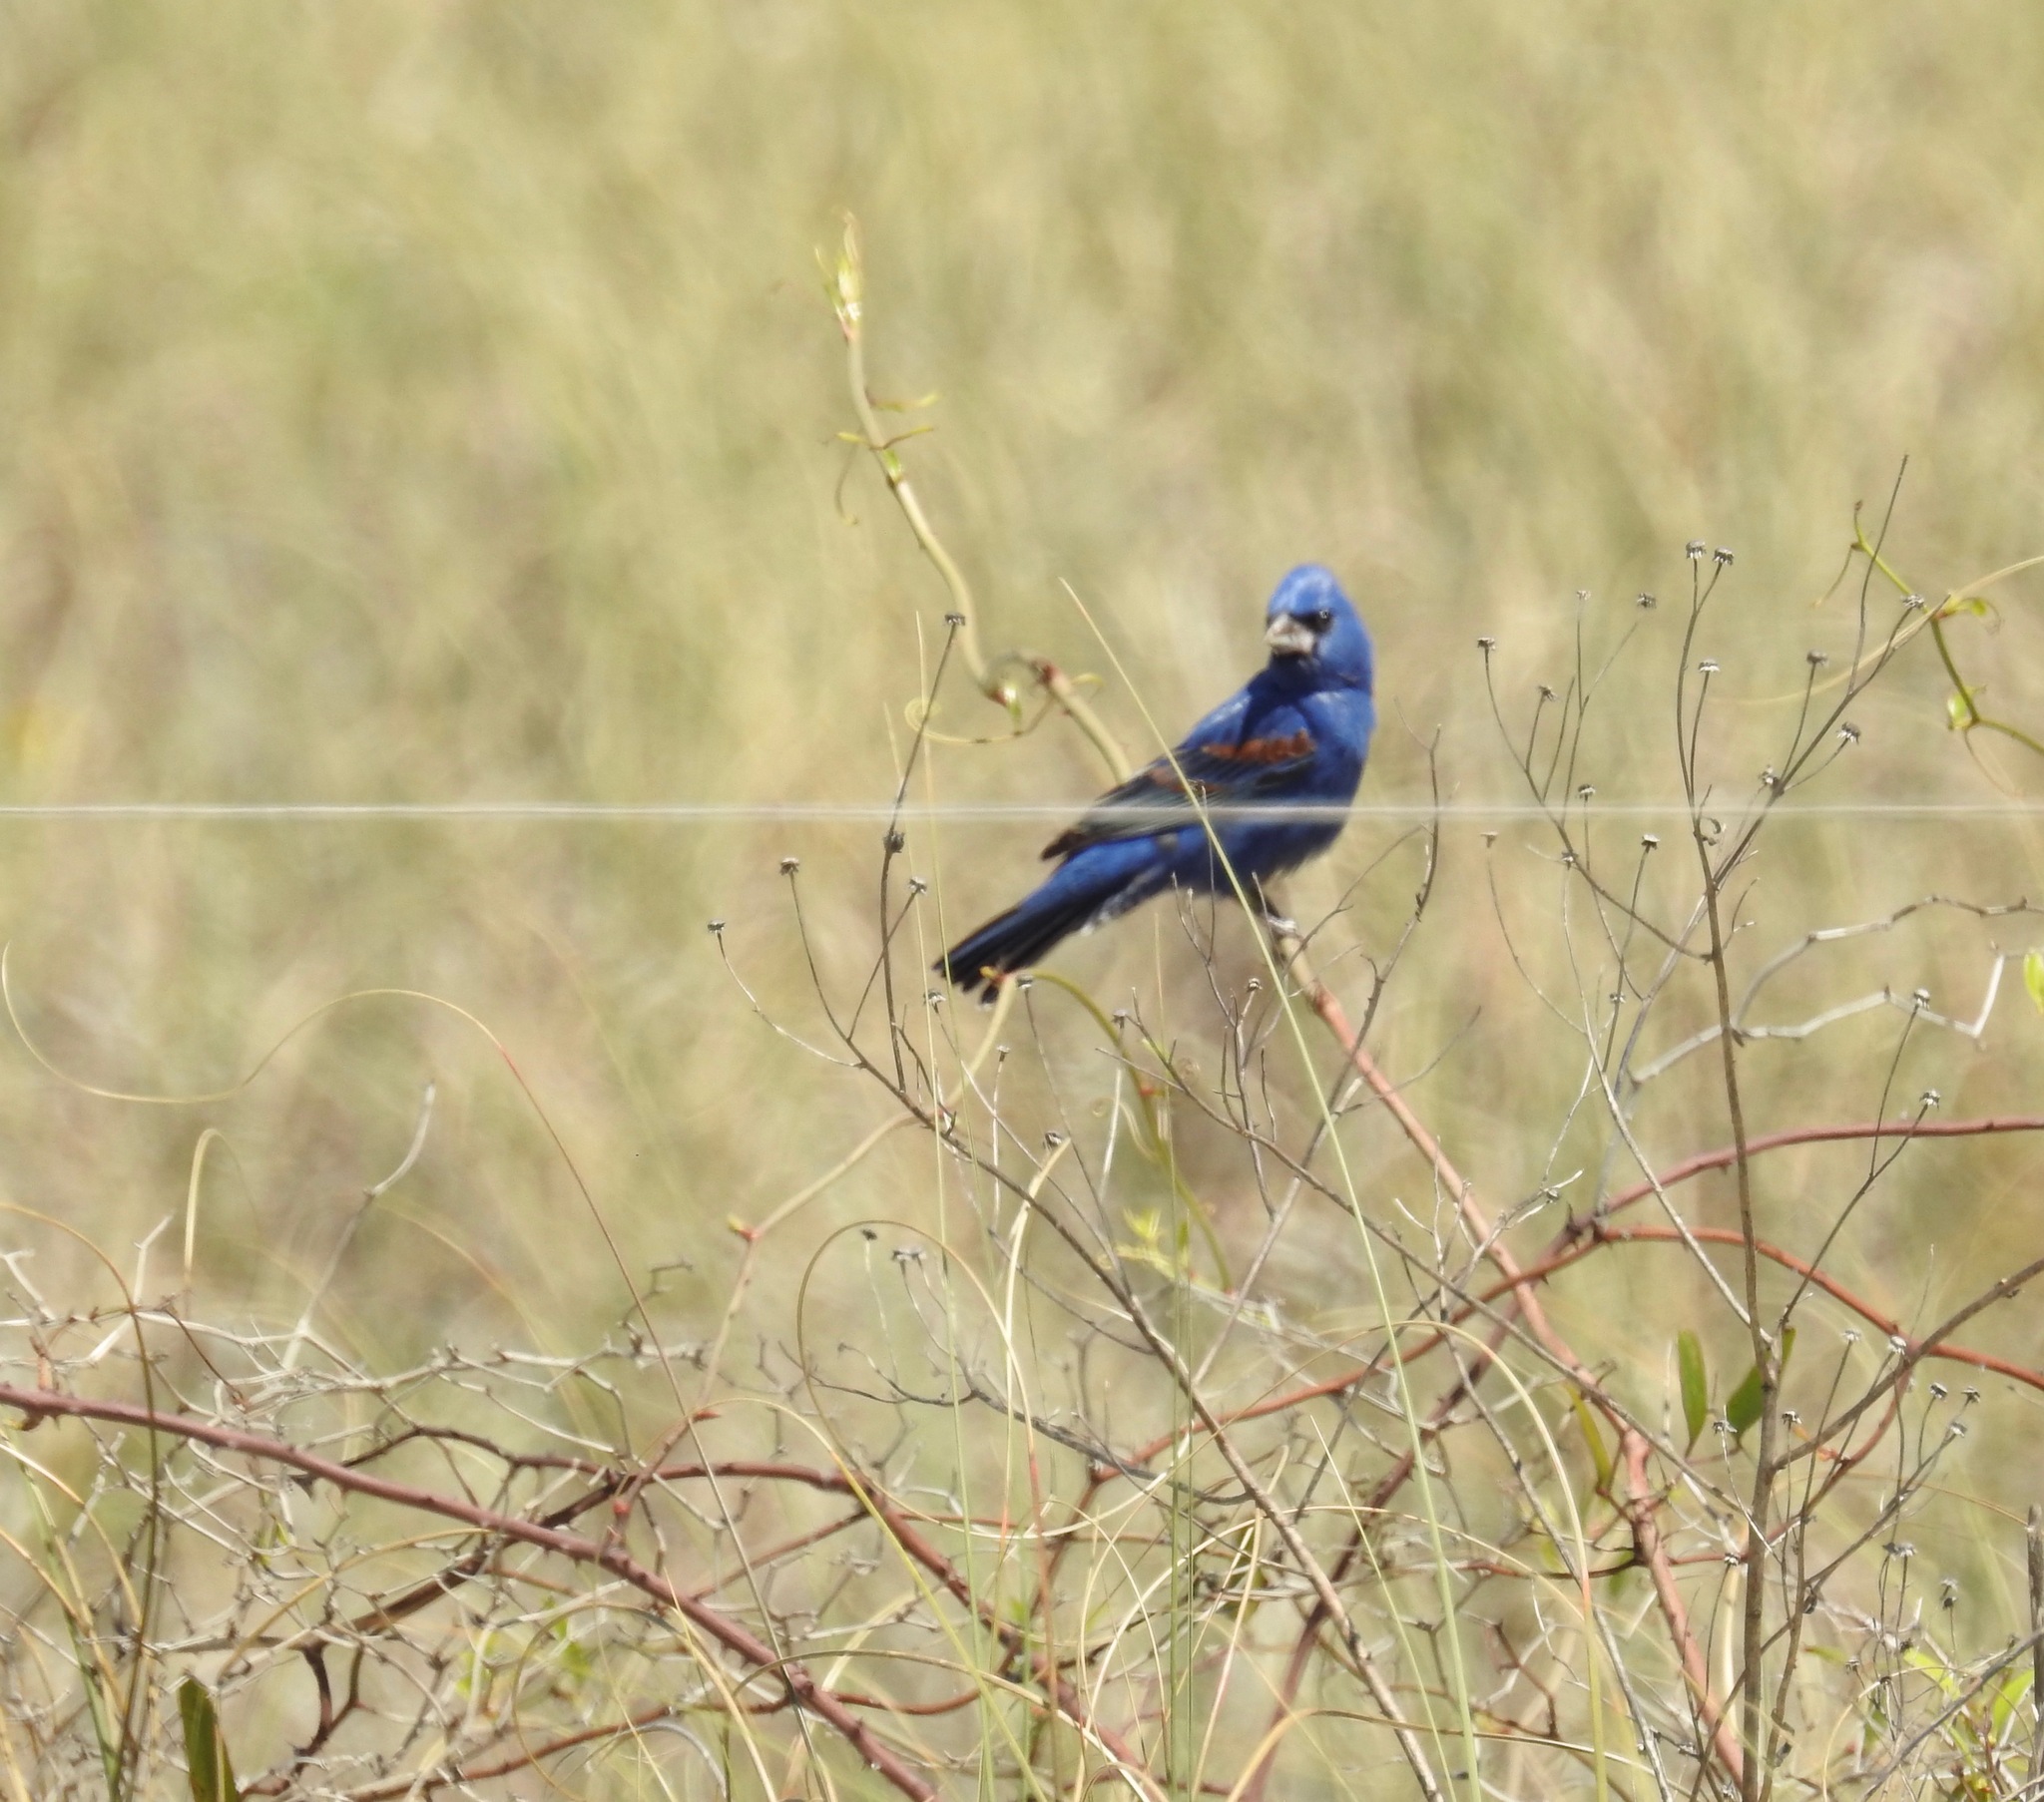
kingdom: Animalia
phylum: Chordata
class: Aves
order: Passeriformes
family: Cardinalidae
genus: Passerina
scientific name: Passerina caerulea
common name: Blue grosbeak
